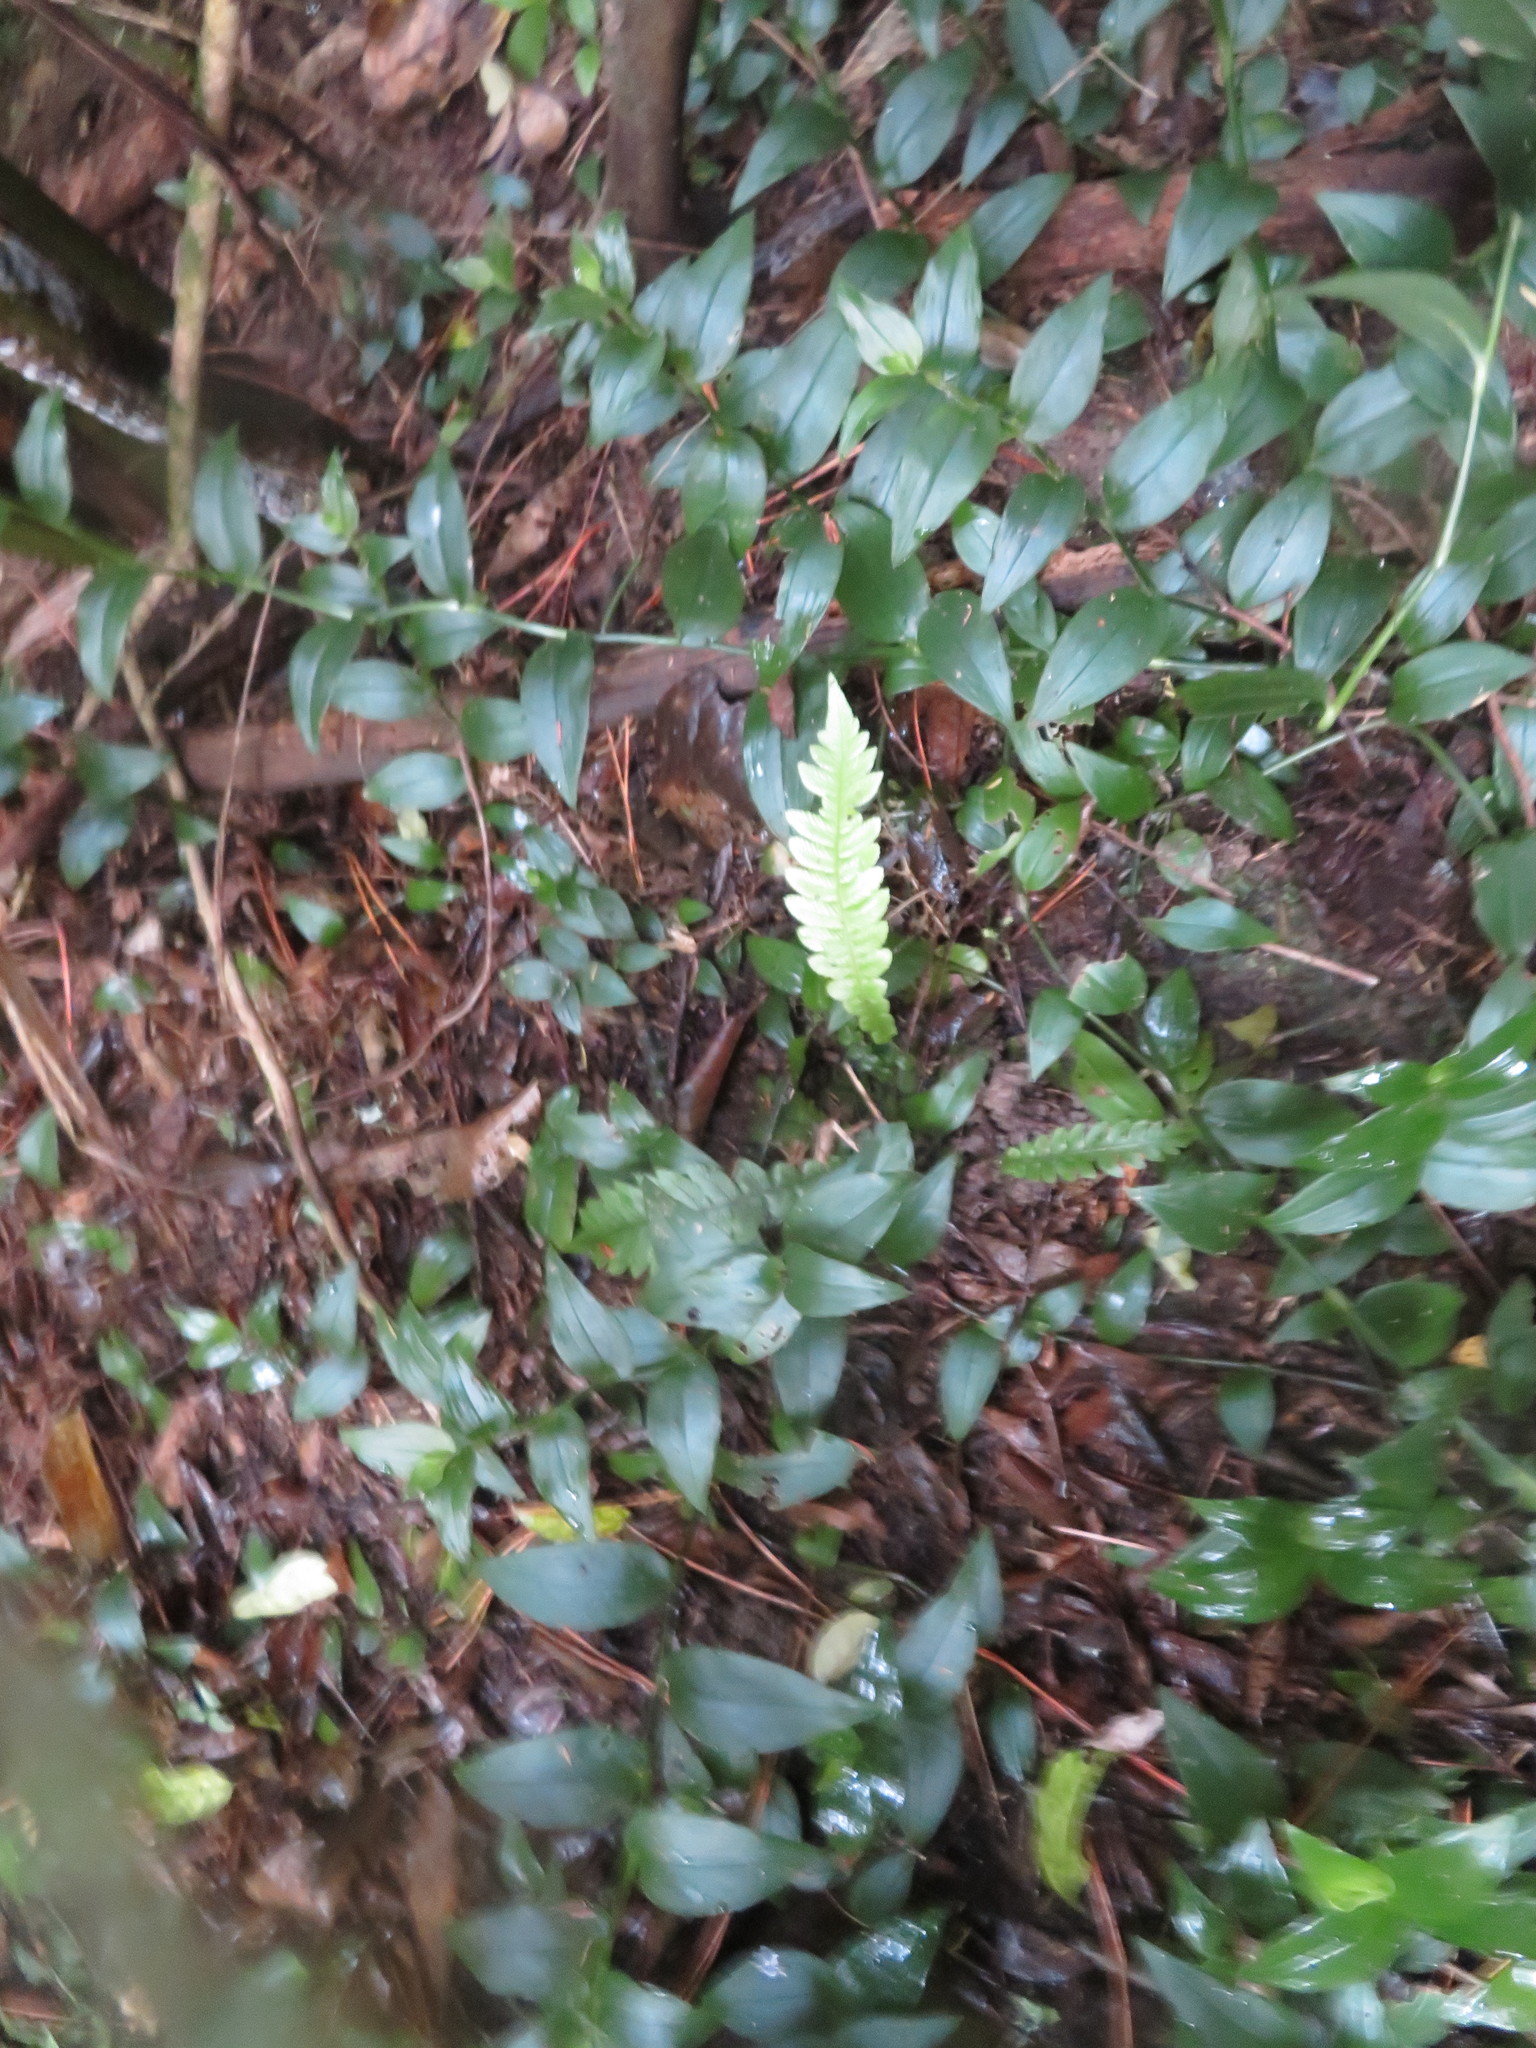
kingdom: Plantae
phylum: Tracheophyta
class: Polypodiopsida
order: Polypodiales
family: Blechnaceae
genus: Austroblechnum
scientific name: Austroblechnum lanceolatum
